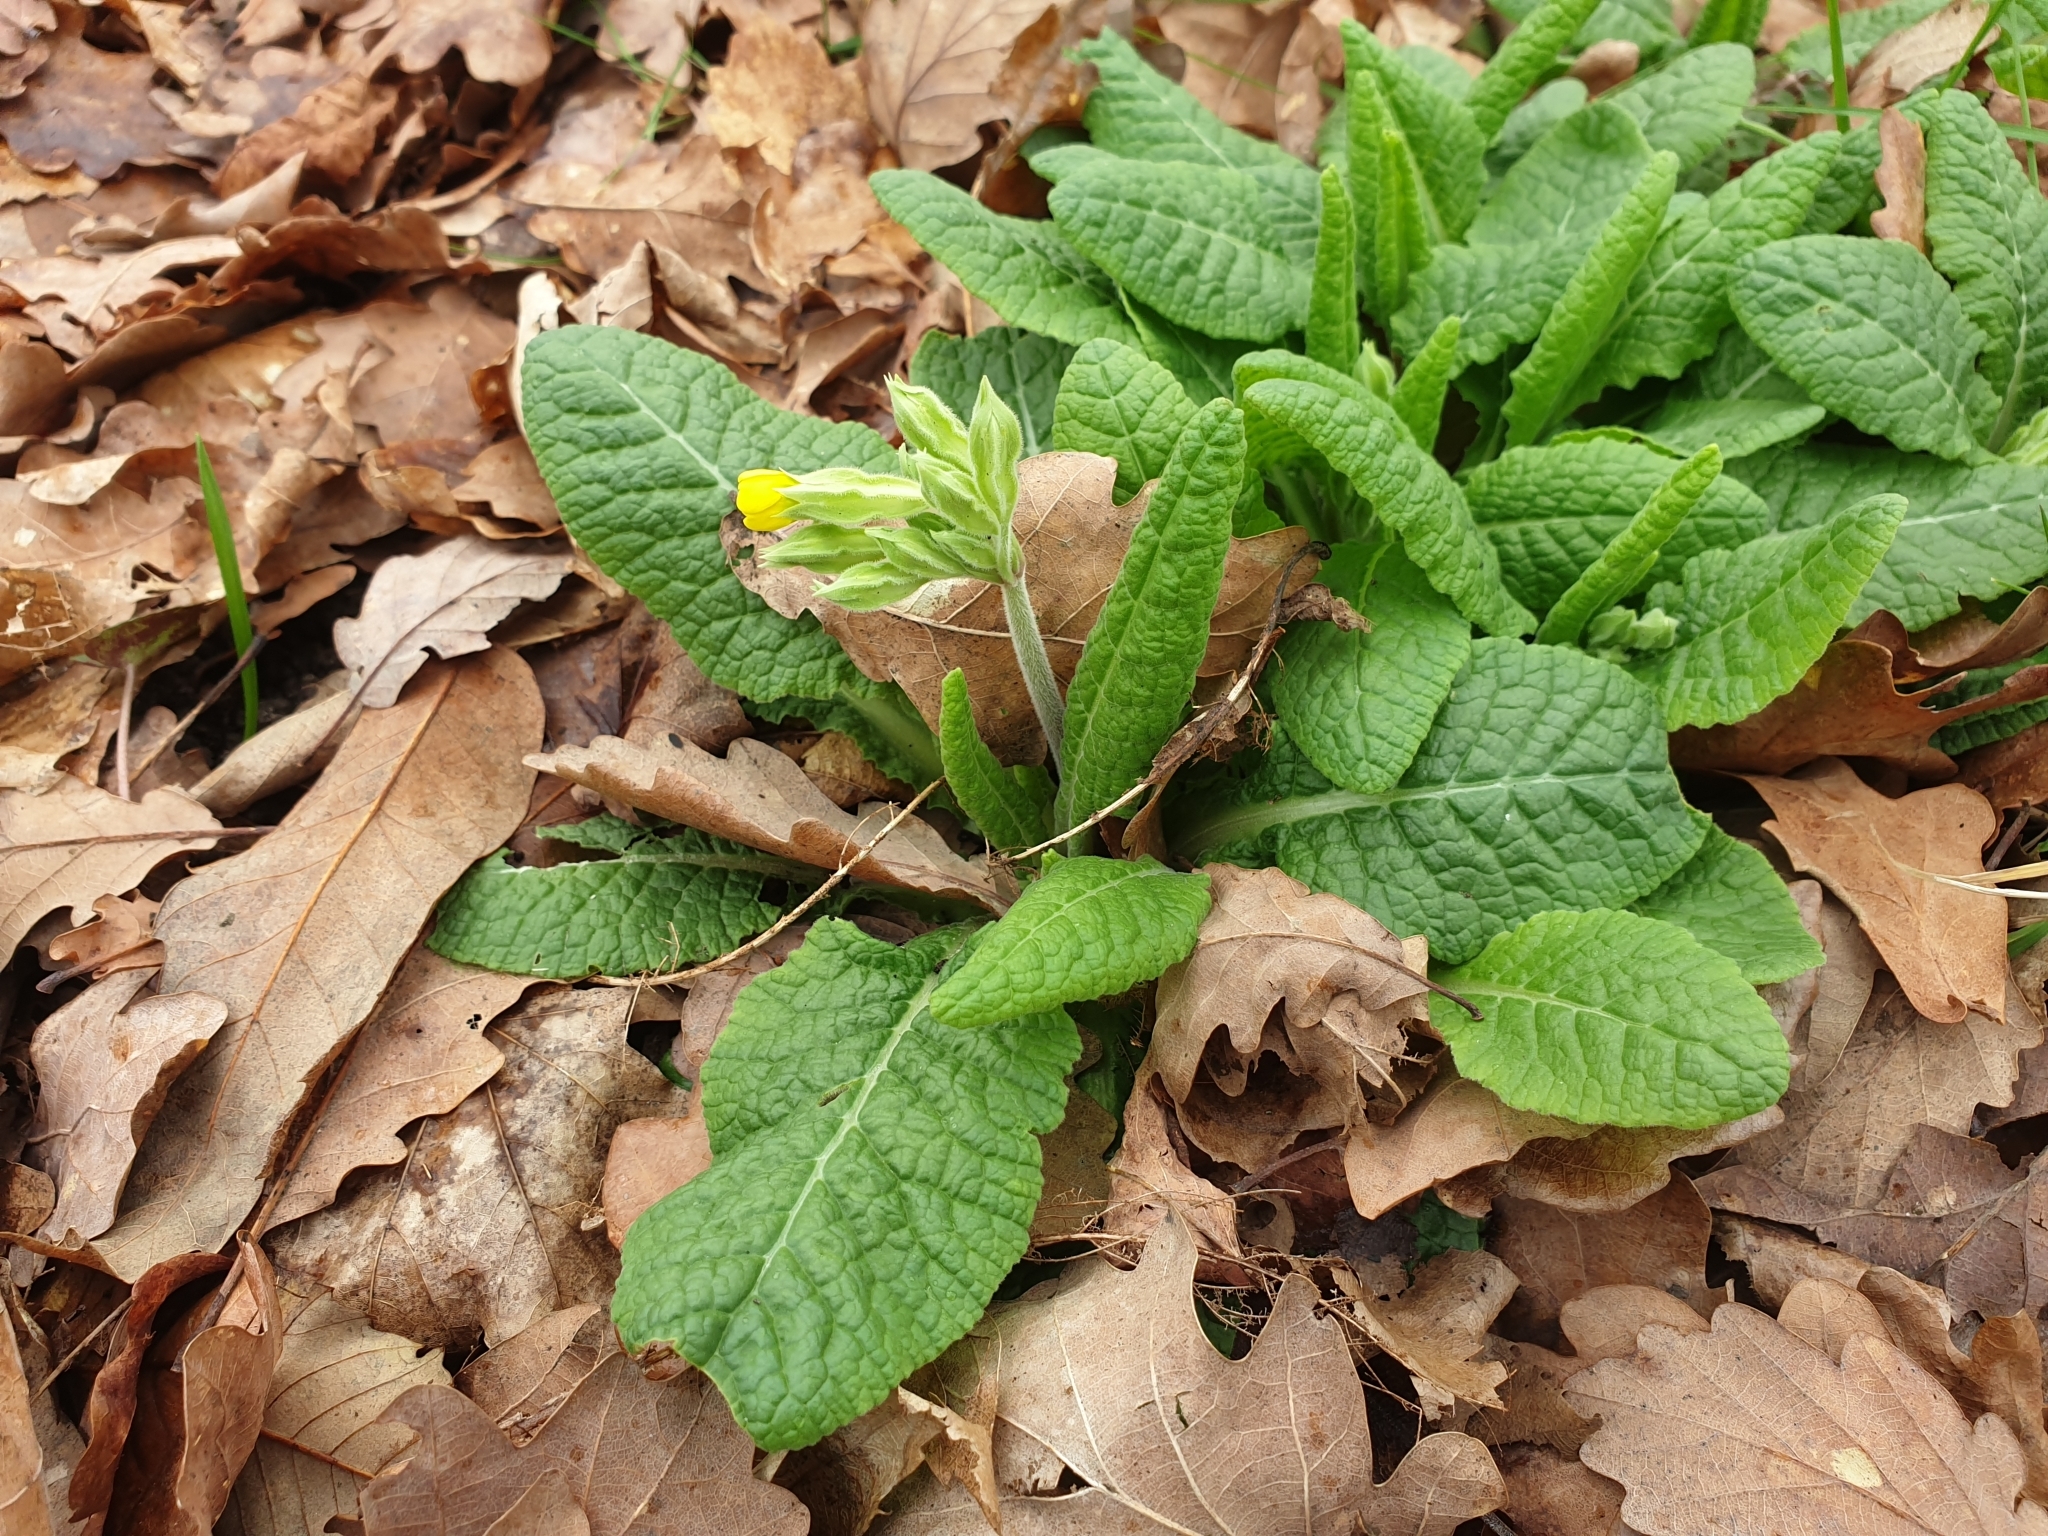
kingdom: Plantae
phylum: Tracheophyta
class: Magnoliopsida
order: Ericales
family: Primulaceae
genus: Primula
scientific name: Primula veris
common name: Cowslip
